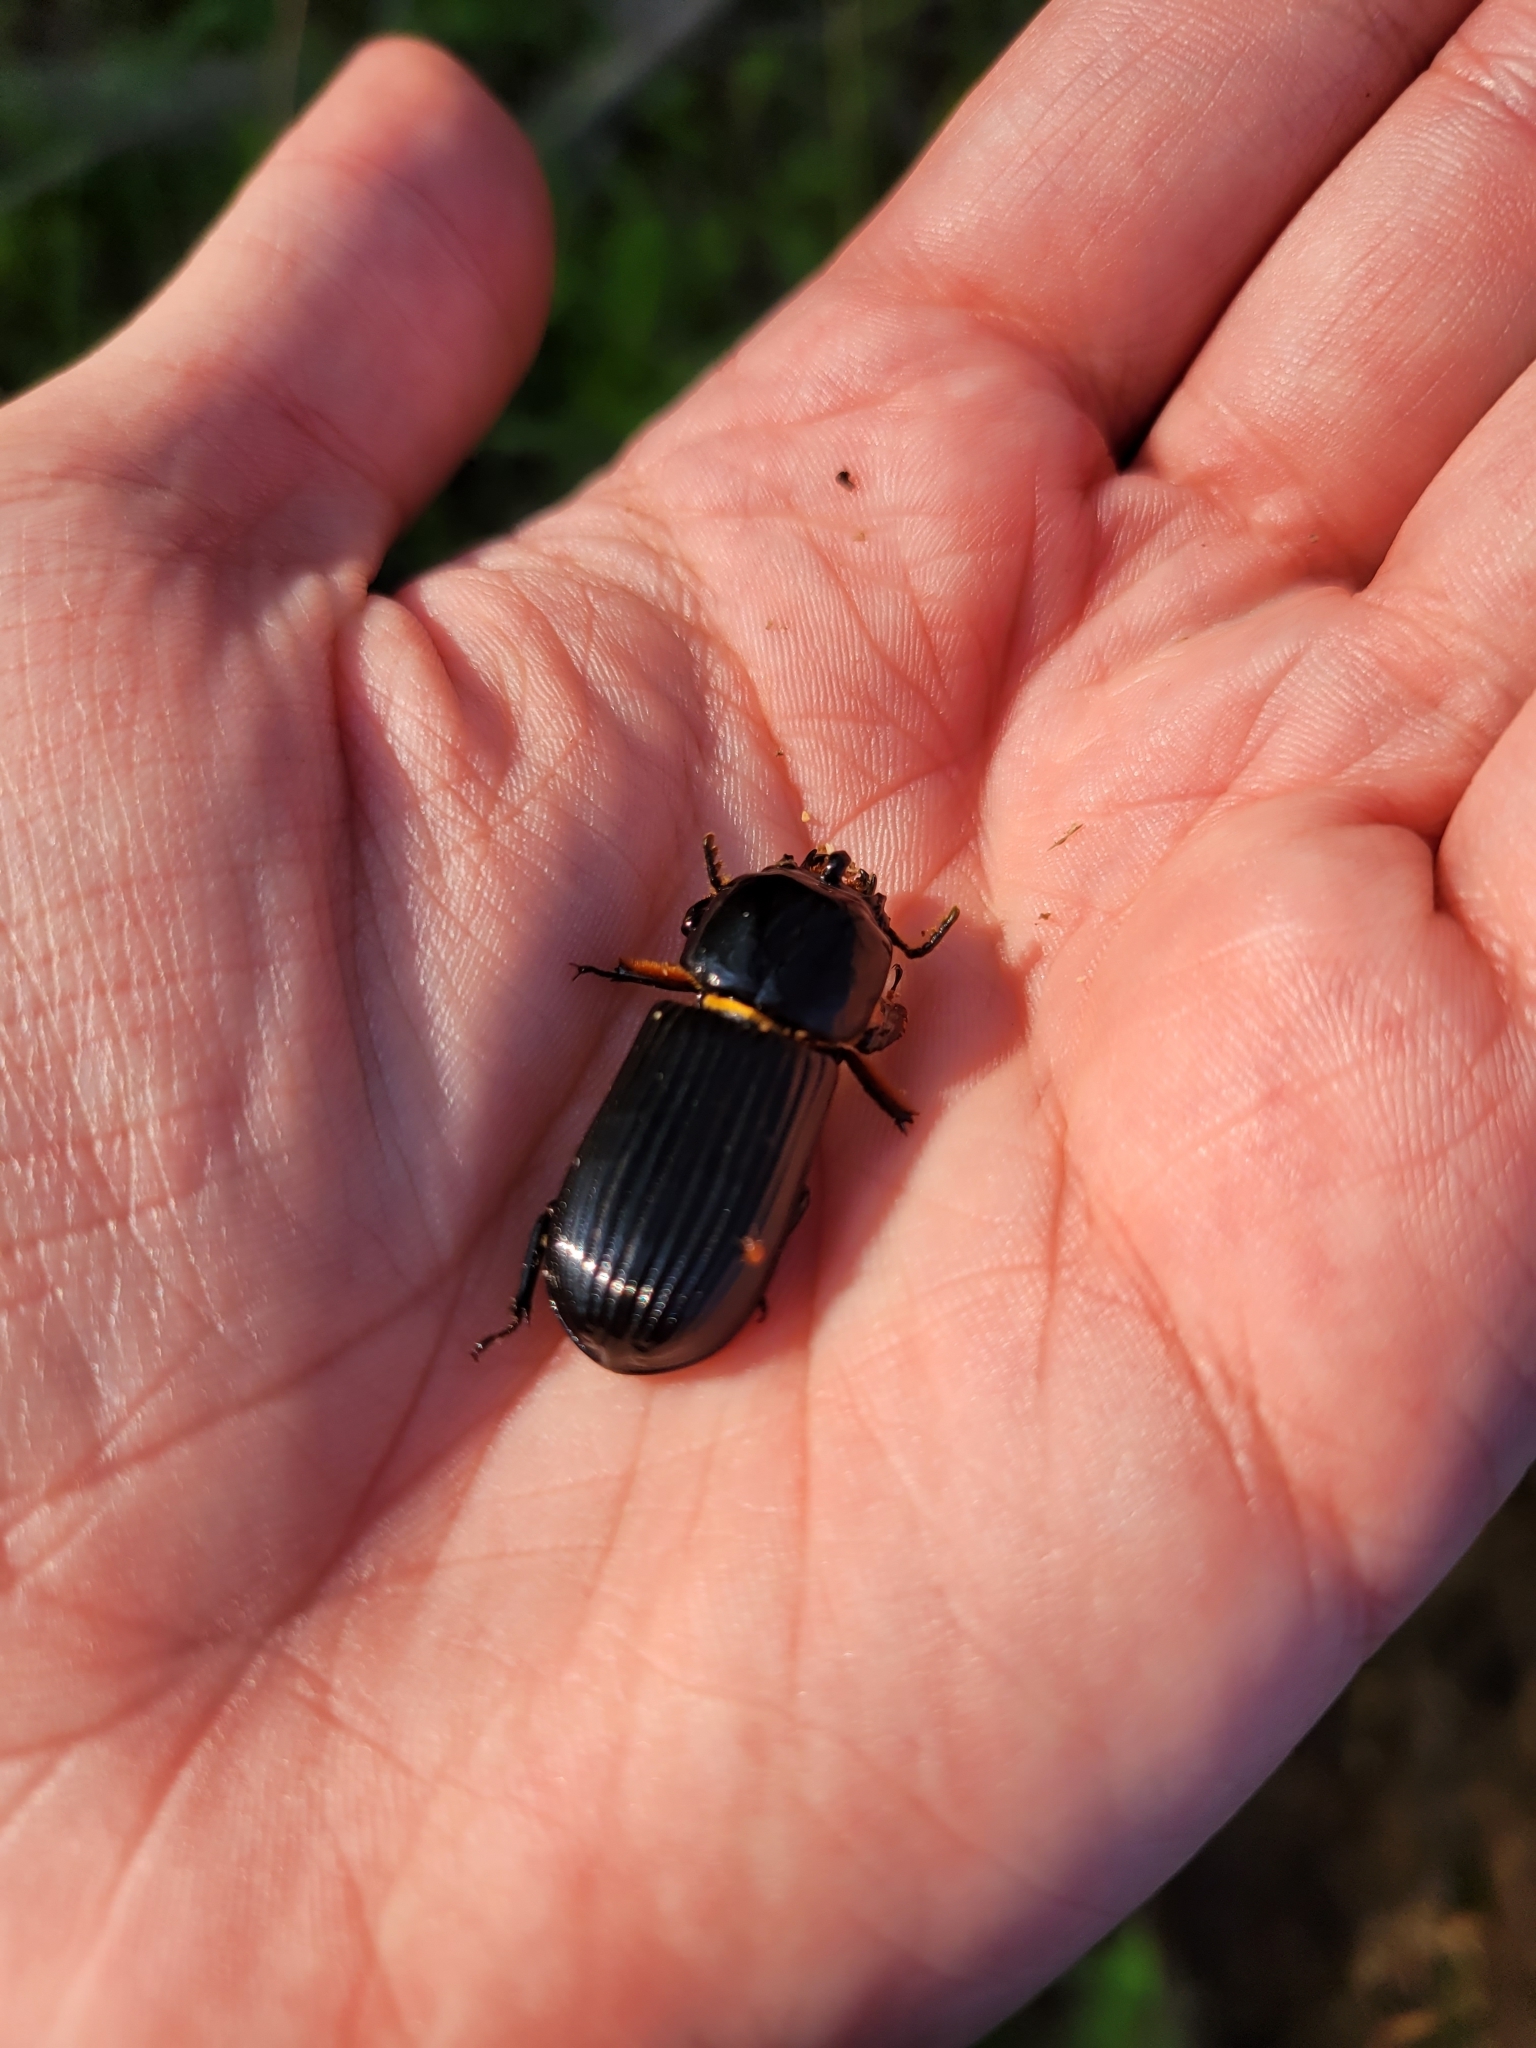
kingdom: Animalia
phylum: Arthropoda
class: Insecta
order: Coleoptera
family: Passalidae
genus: Odontotaenius
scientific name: Odontotaenius disjunctus
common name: Patent leather beetle
